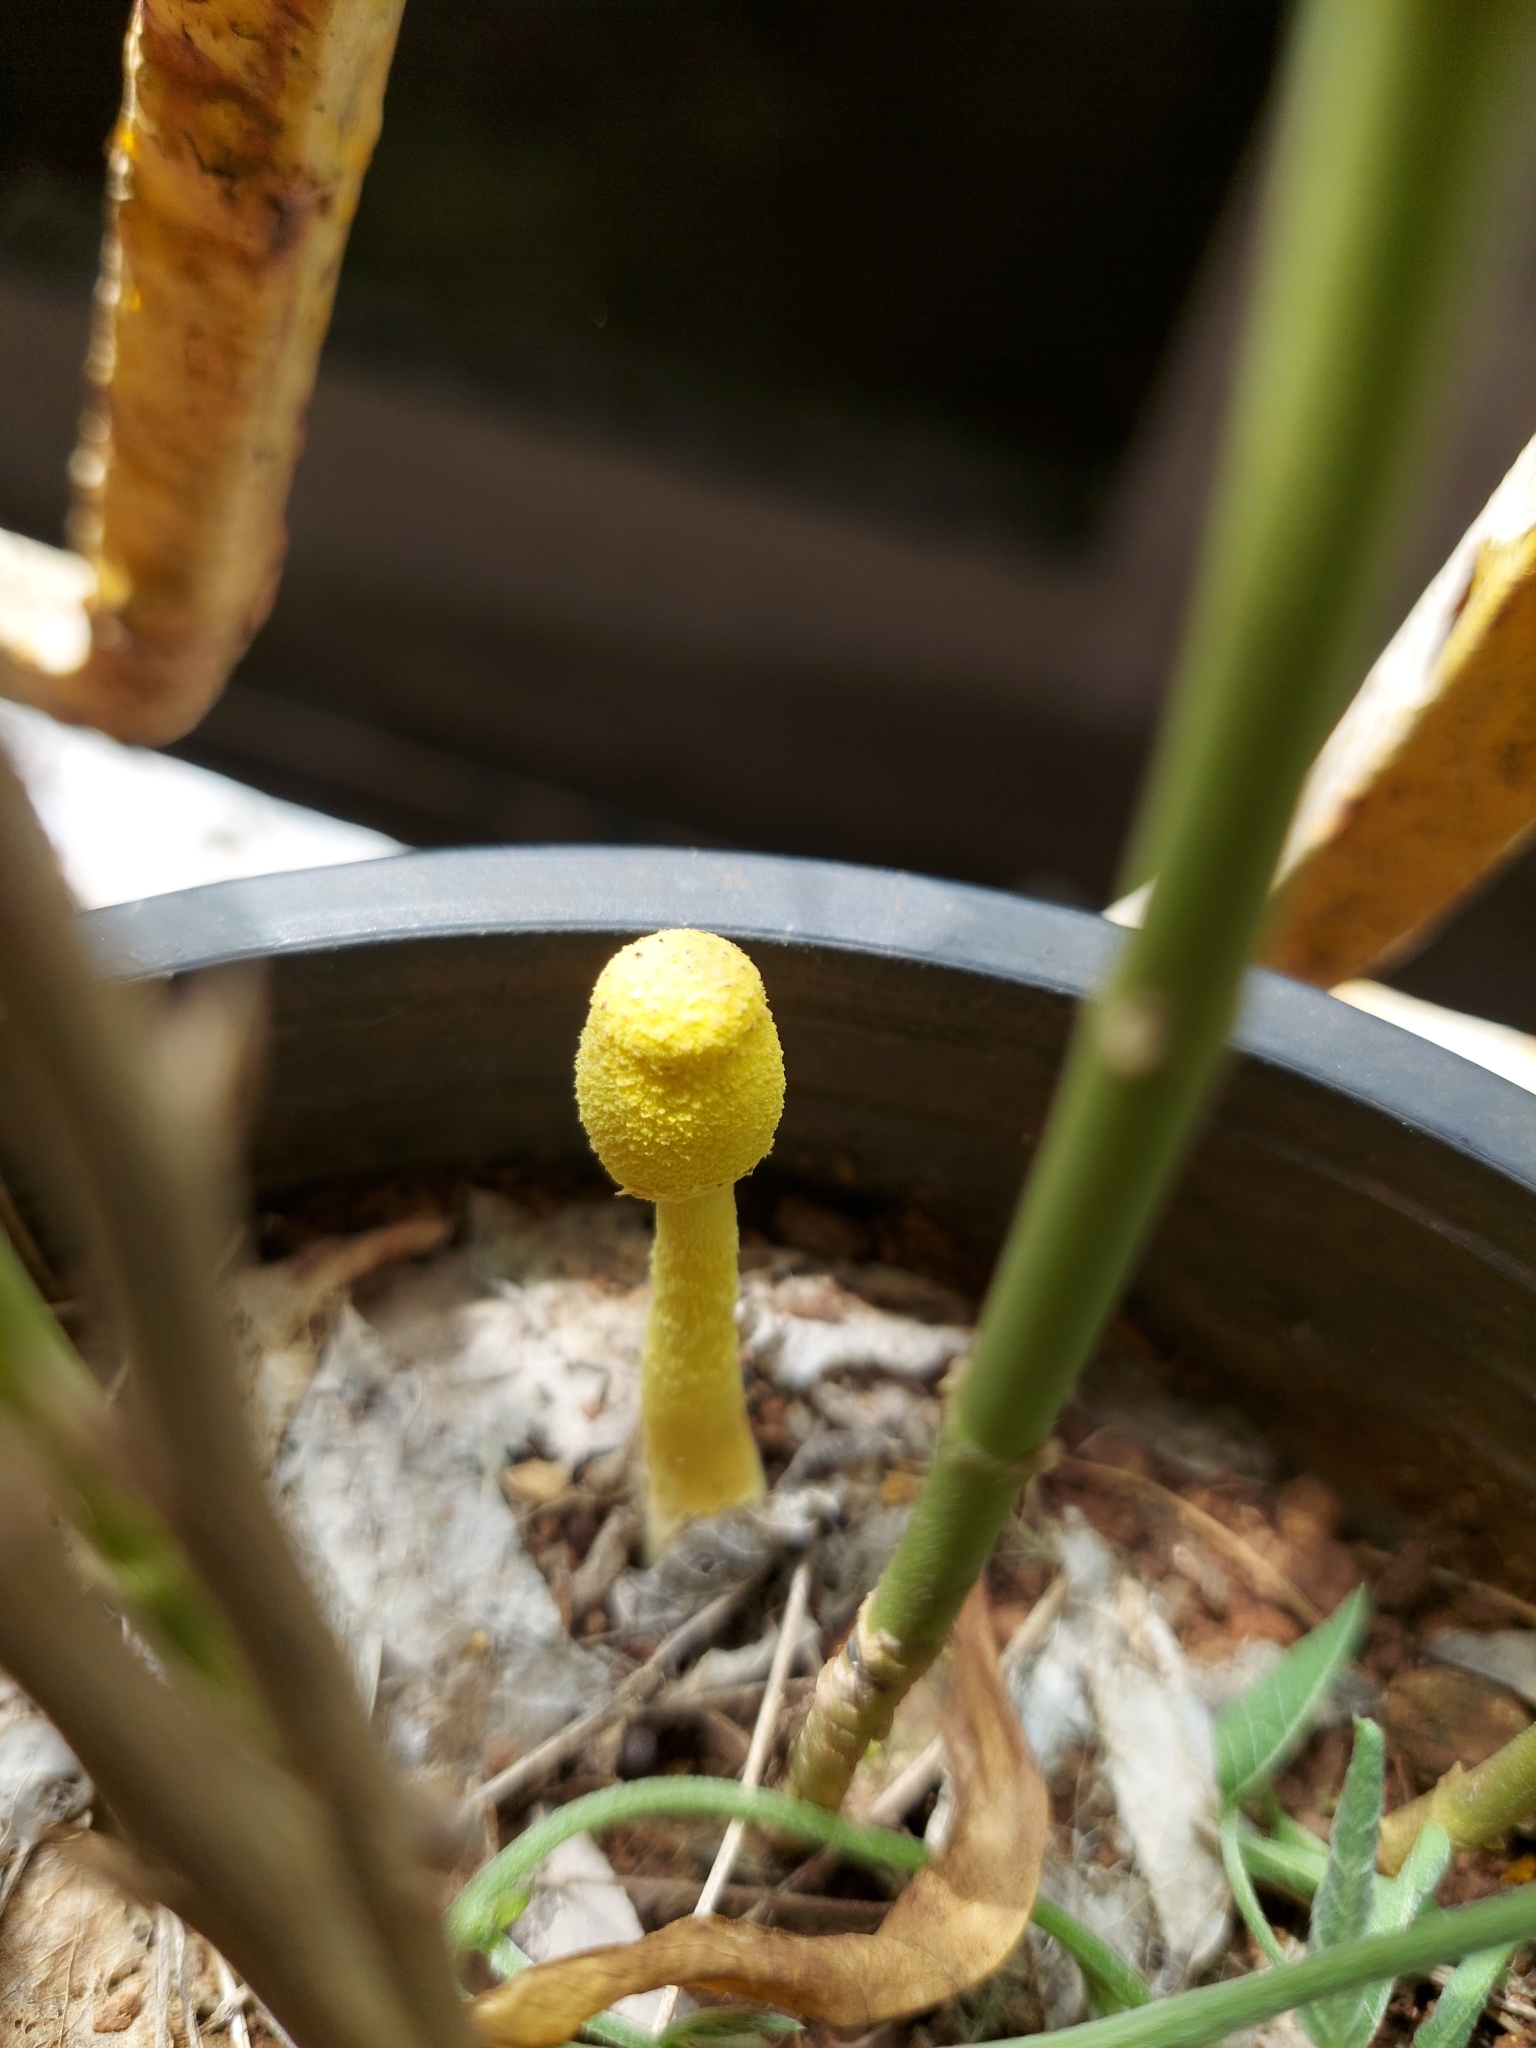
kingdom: Fungi
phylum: Basidiomycota
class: Agaricomycetes
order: Agaricales
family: Agaricaceae
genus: Leucocoprinus
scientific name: Leucocoprinus birnbaumii
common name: Plantpot dapperling
